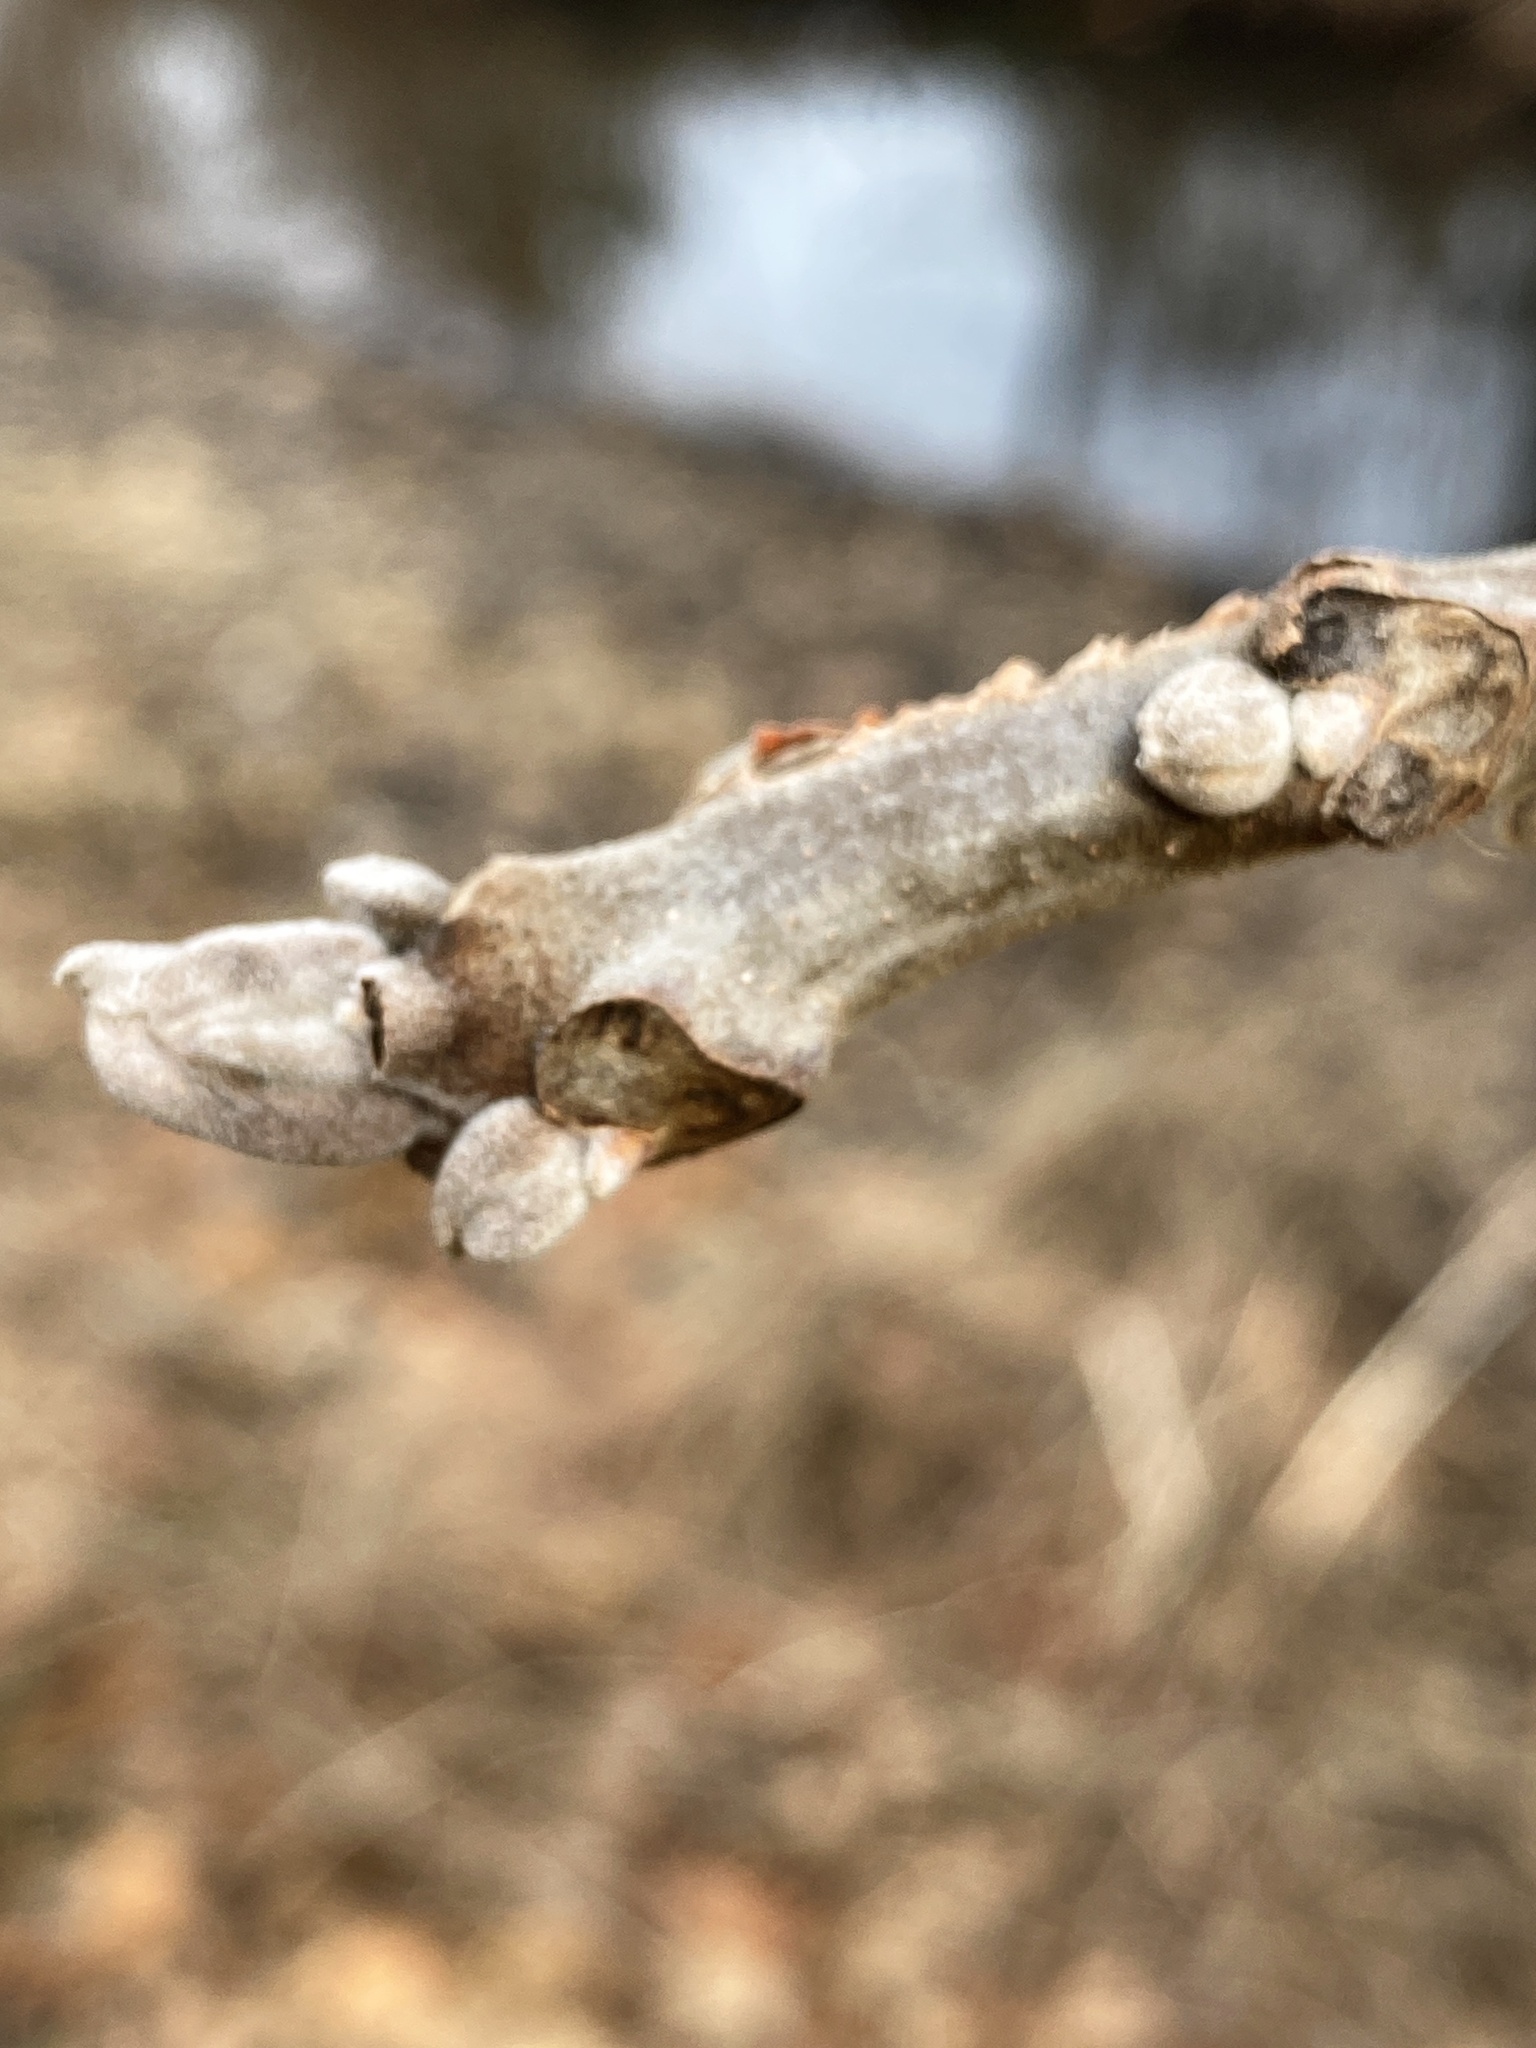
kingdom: Plantae
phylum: Tracheophyta
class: Magnoliopsida
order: Fagales
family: Juglandaceae
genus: Juglans
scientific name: Juglans nigra
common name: Black walnut
